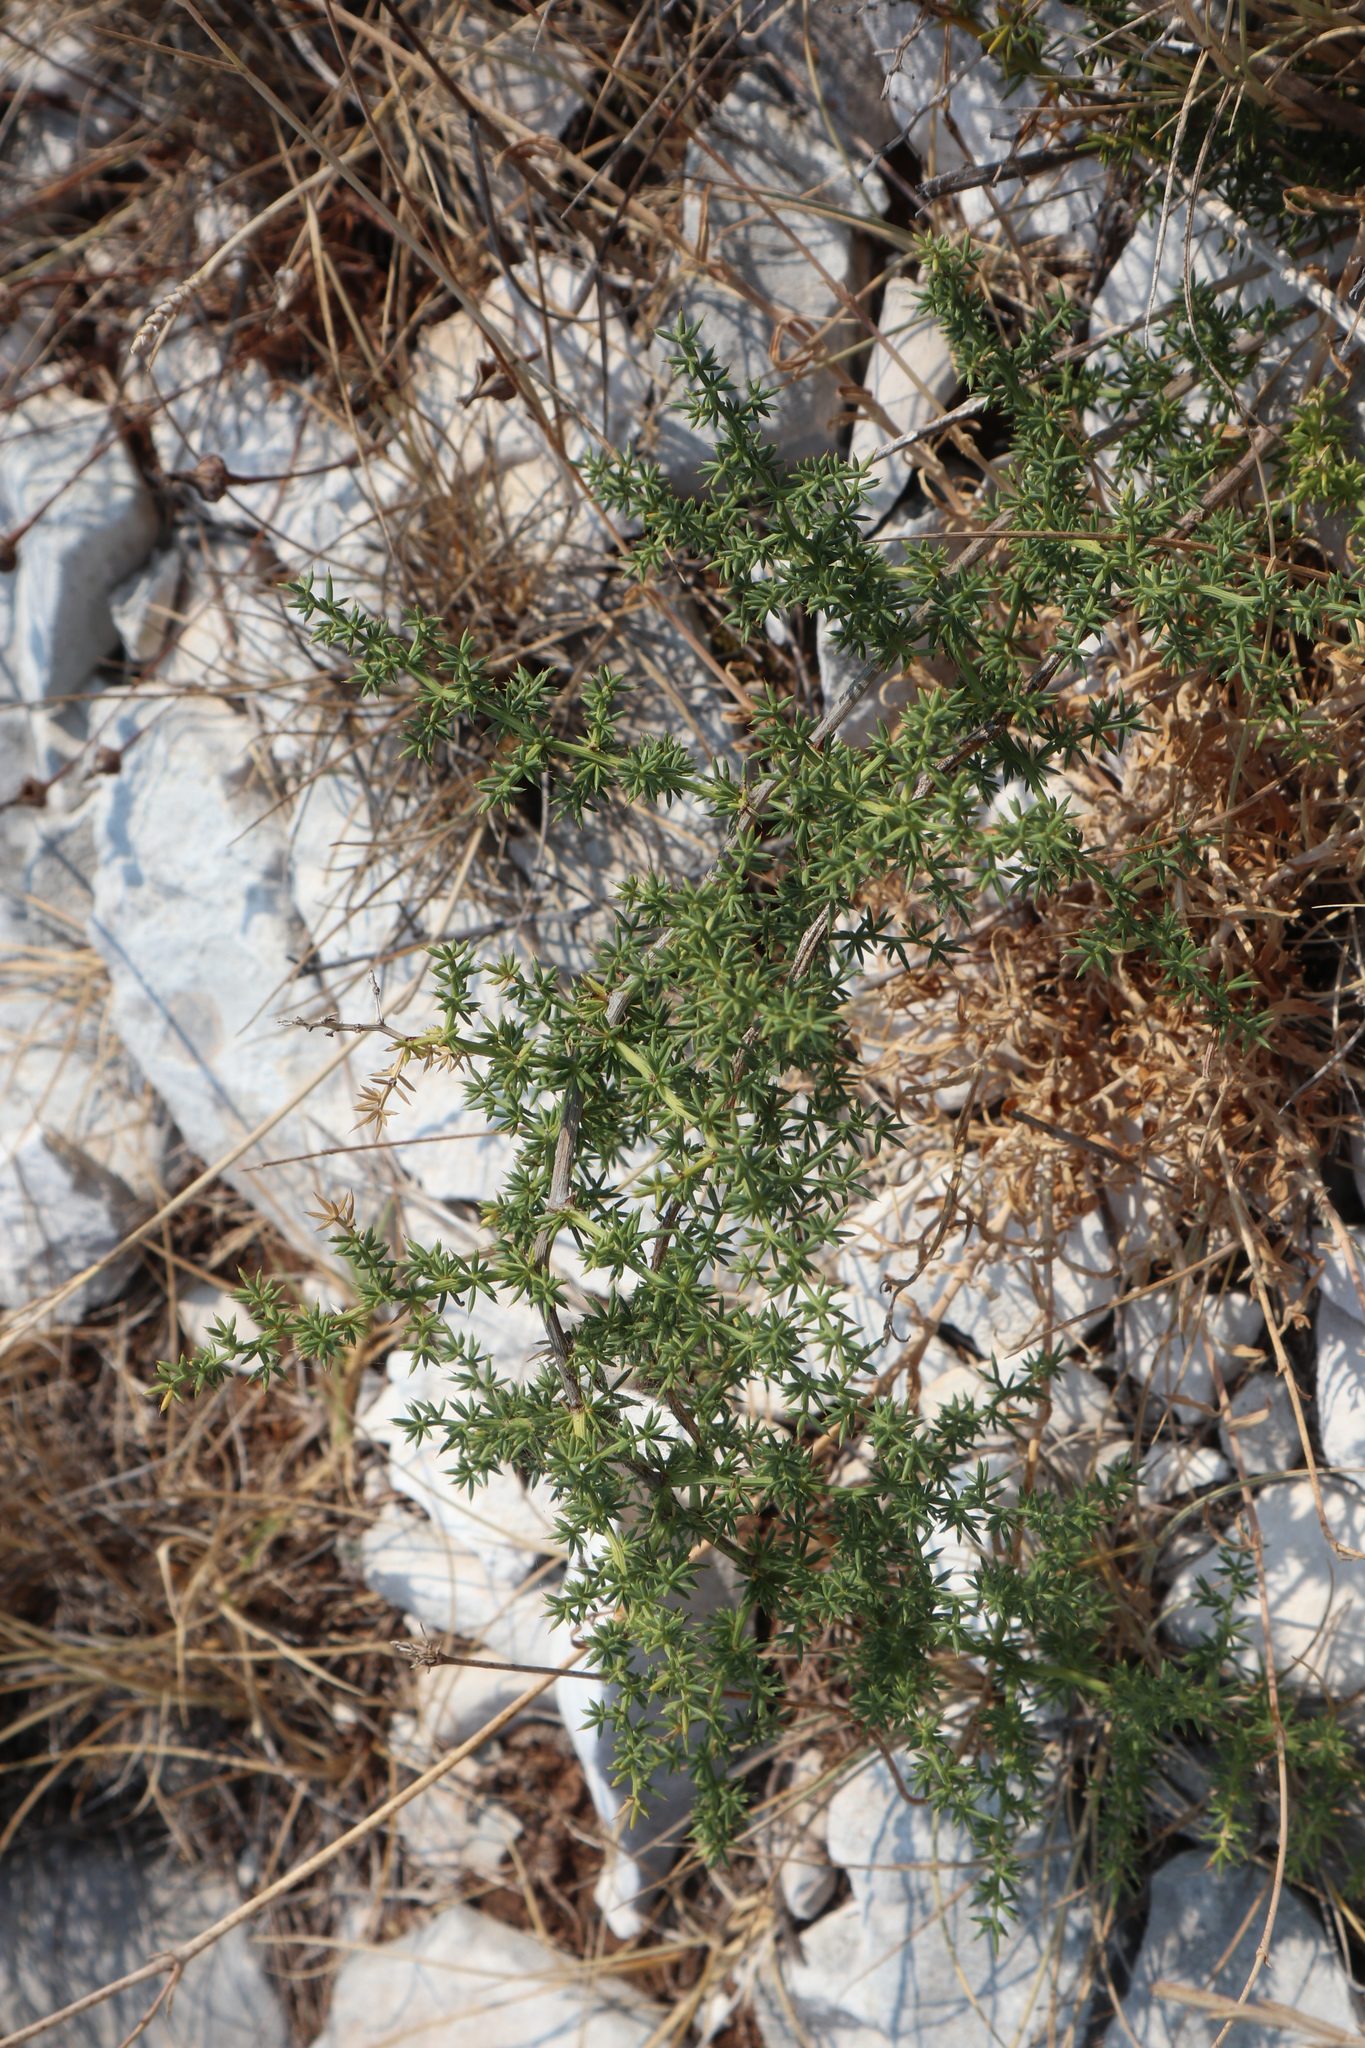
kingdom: Plantae
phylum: Tracheophyta
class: Liliopsida
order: Asparagales
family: Asparagaceae
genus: Asparagus
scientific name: Asparagus acutifolius
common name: Wild asparagus
